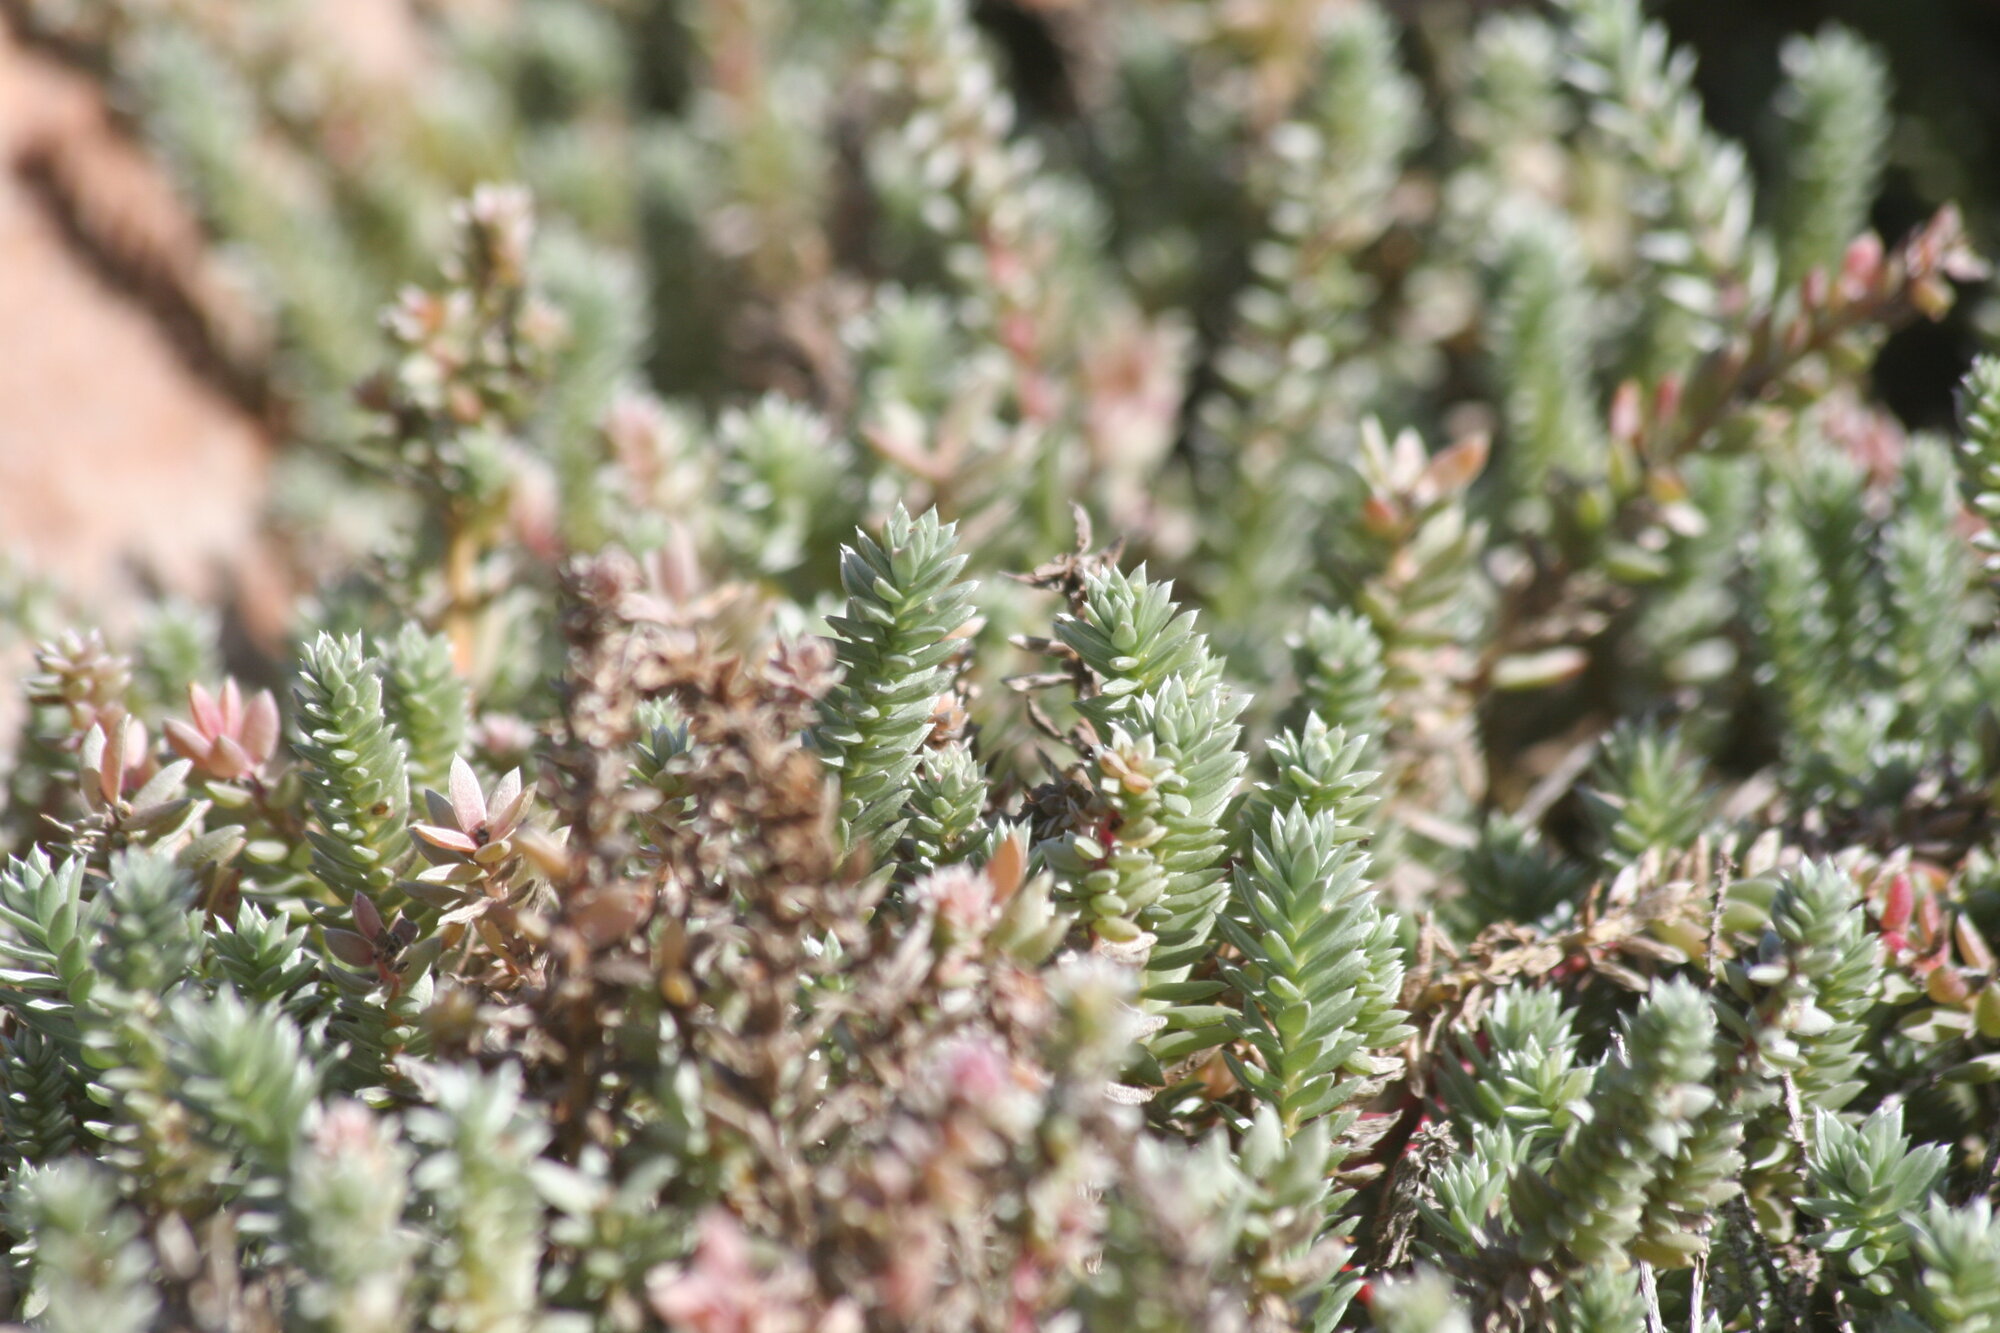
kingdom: Plantae
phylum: Tracheophyta
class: Magnoliopsida
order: Caryophyllales
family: Amaranthaceae
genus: Chenolea
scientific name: Chenolea diffusa
